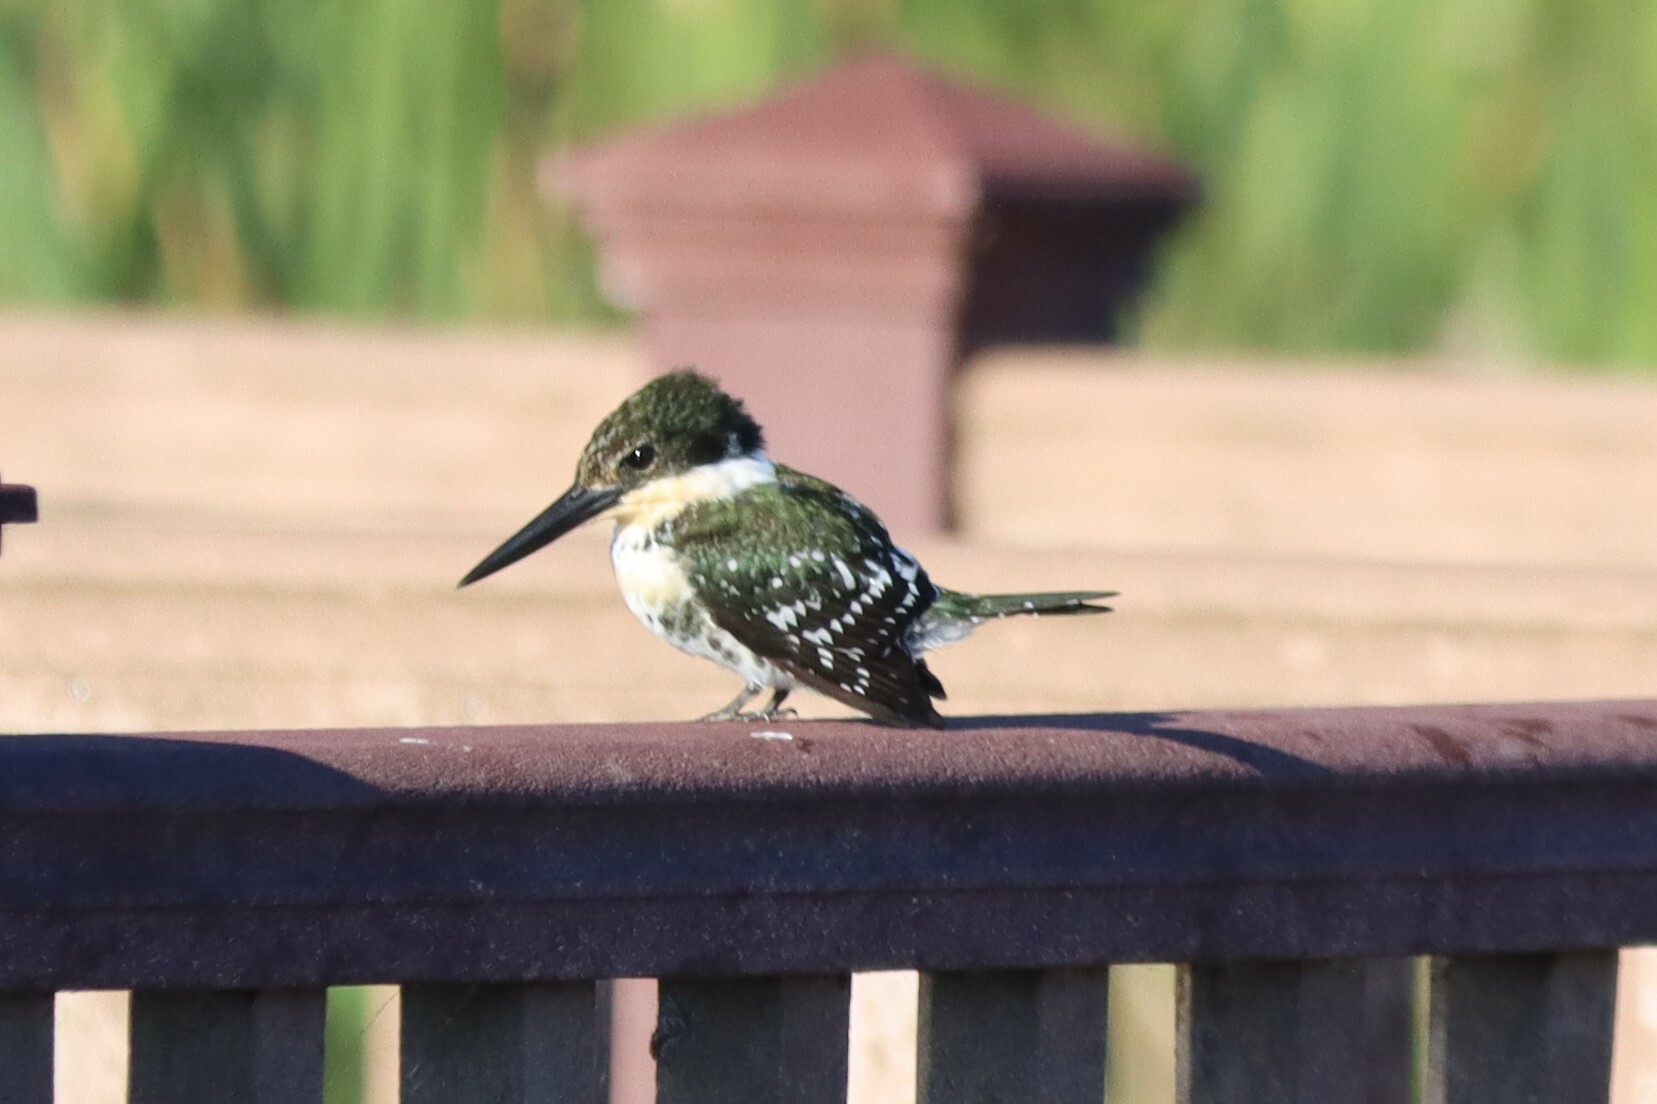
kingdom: Animalia
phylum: Chordata
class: Aves
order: Coraciiformes
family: Alcedinidae
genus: Chloroceryle
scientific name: Chloroceryle americana
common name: Green kingfisher
